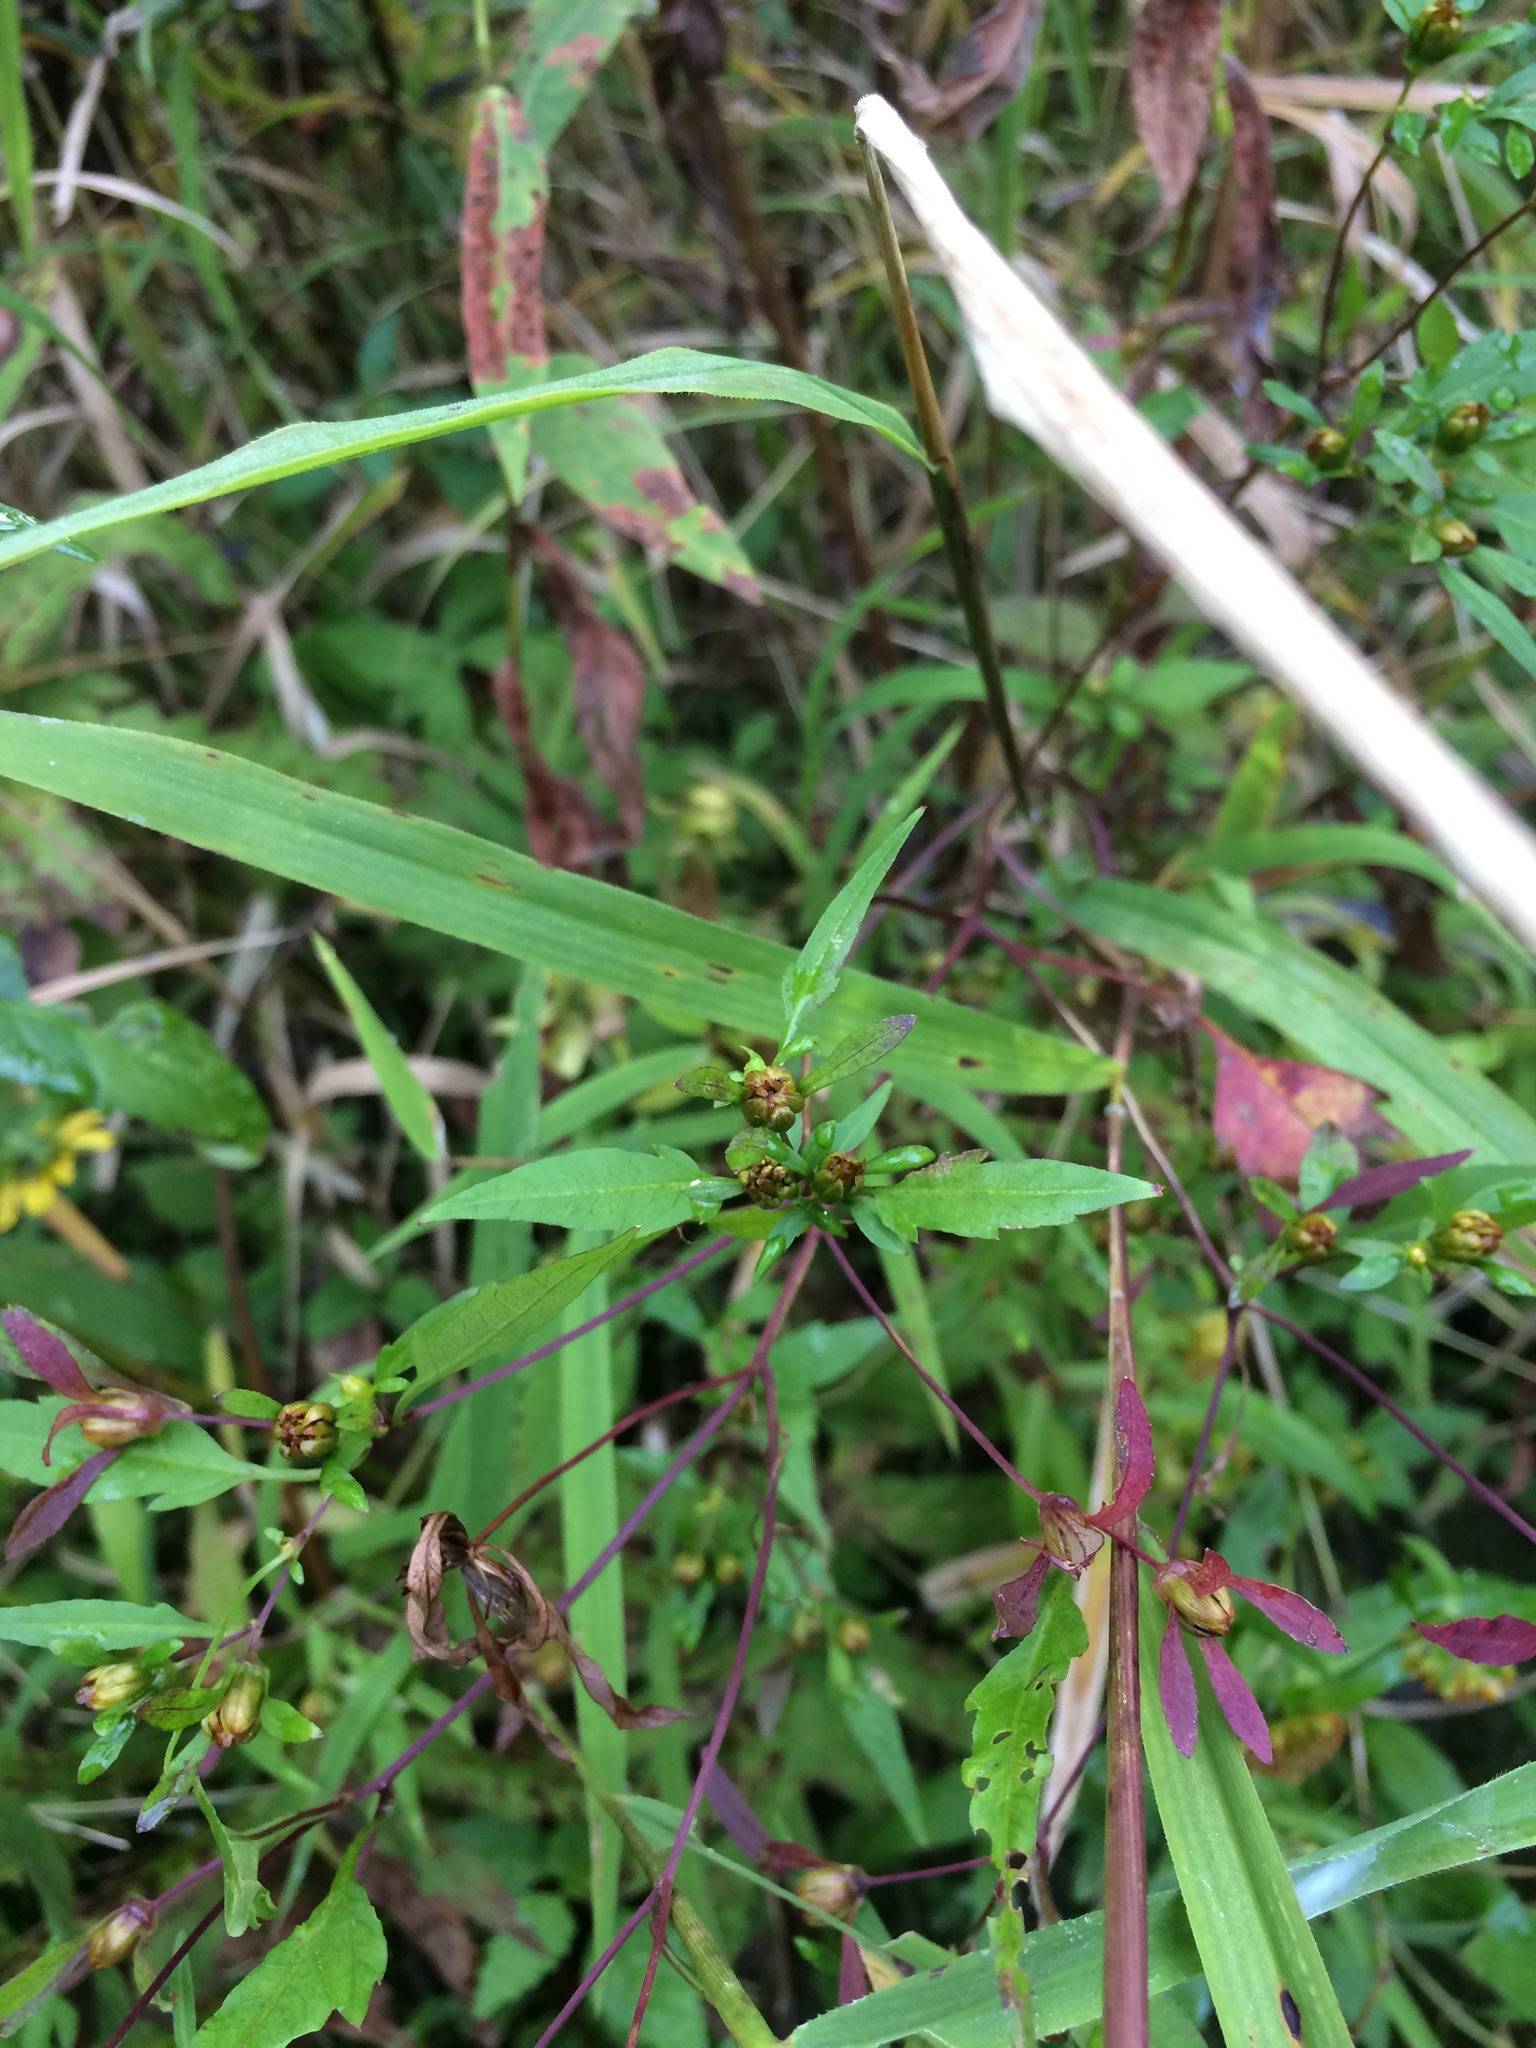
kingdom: Plantae
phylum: Tracheophyta
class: Magnoliopsida
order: Asterales
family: Asteraceae
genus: Bidens
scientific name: Bidens discoidea
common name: Discoide beggarticks
